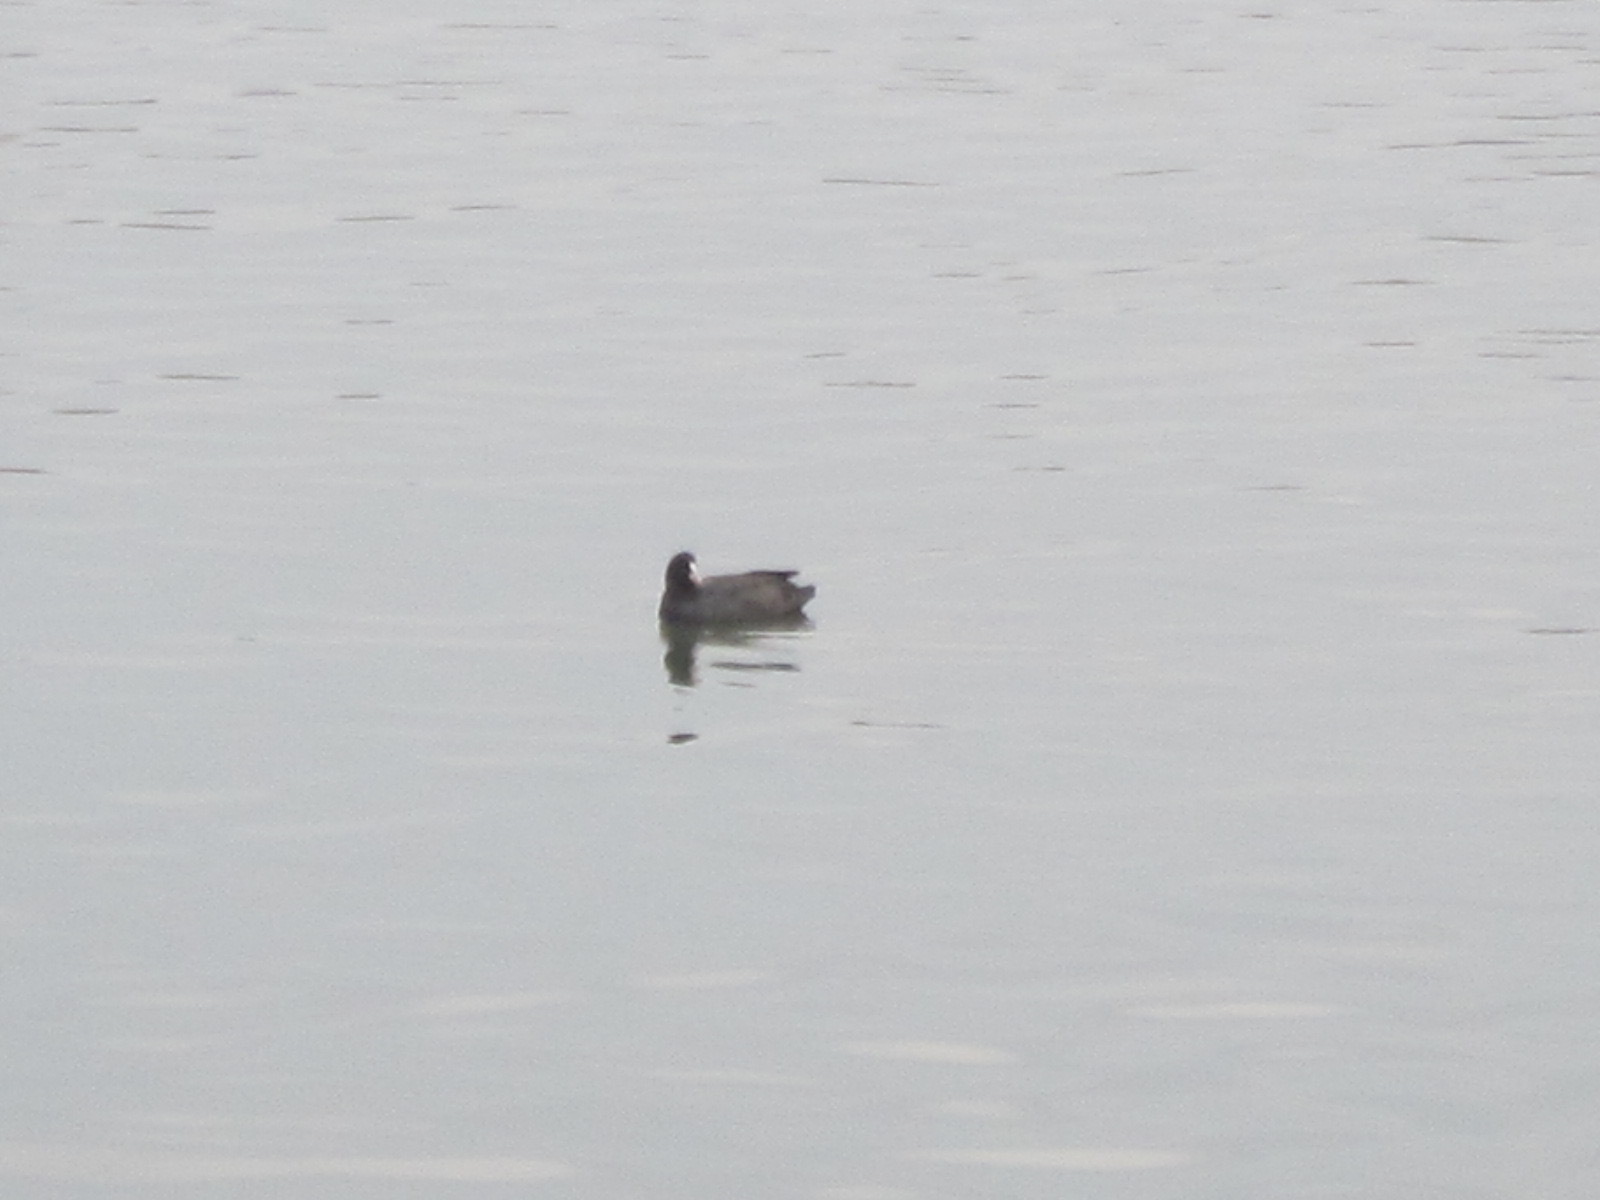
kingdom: Animalia
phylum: Chordata
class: Aves
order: Gruiformes
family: Rallidae
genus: Fulica
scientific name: Fulica atra
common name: Eurasian coot
